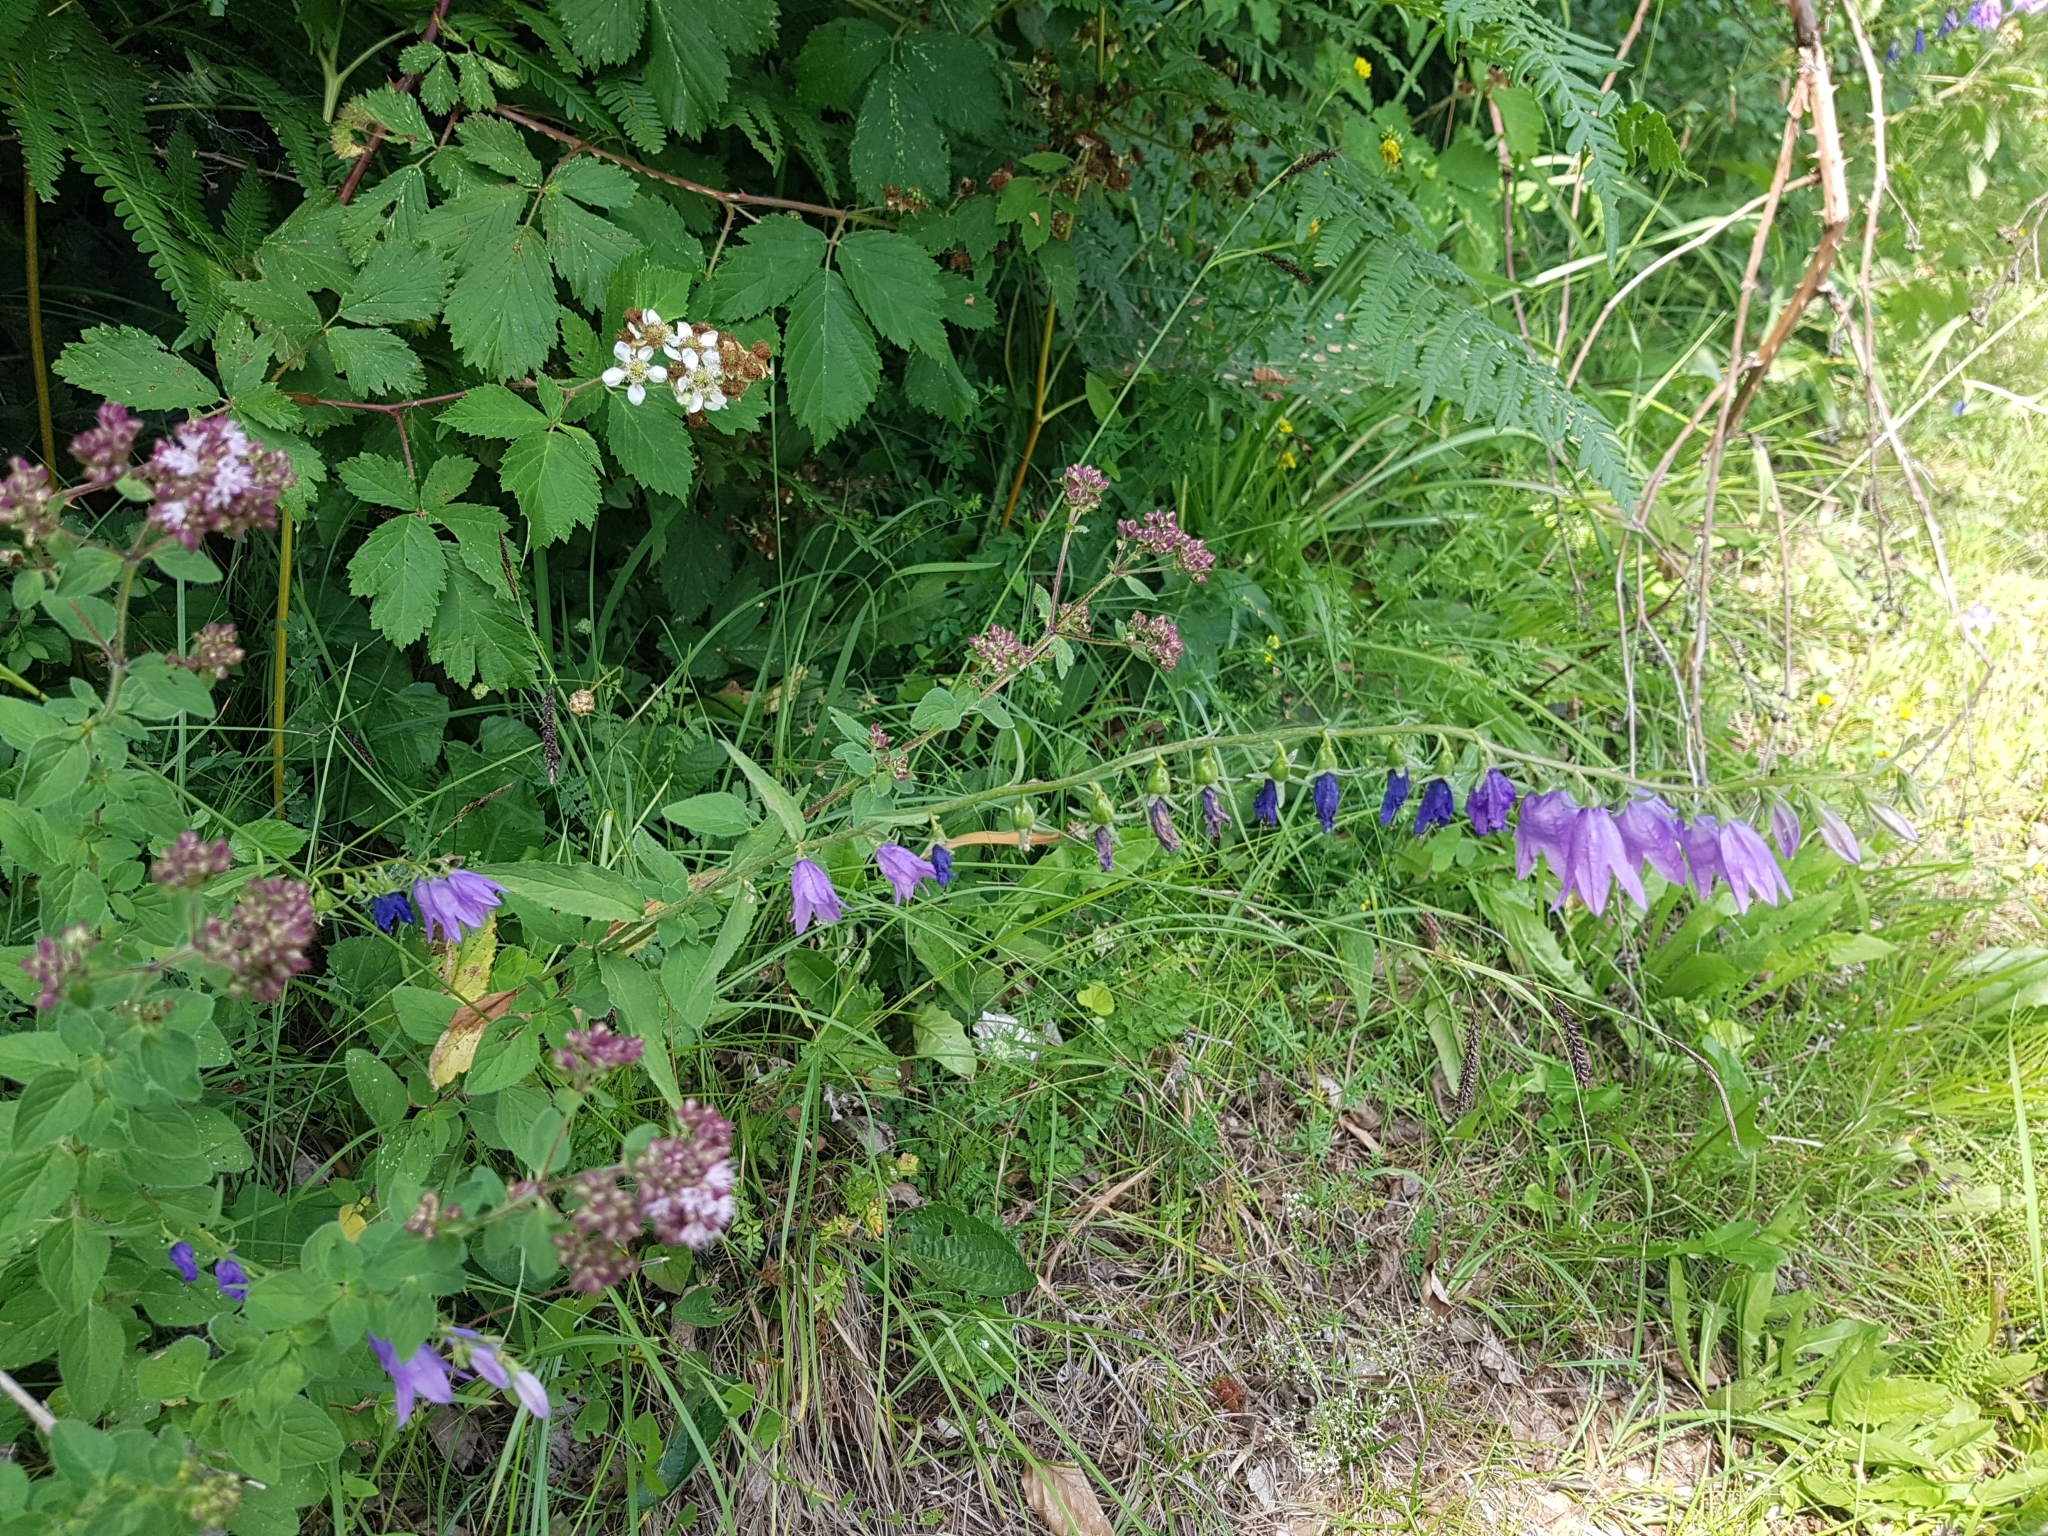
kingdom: Plantae
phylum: Tracheophyta
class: Magnoliopsida
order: Asterales
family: Campanulaceae
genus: Campanula
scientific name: Campanula rapunculoides
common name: Creeping bellflower
